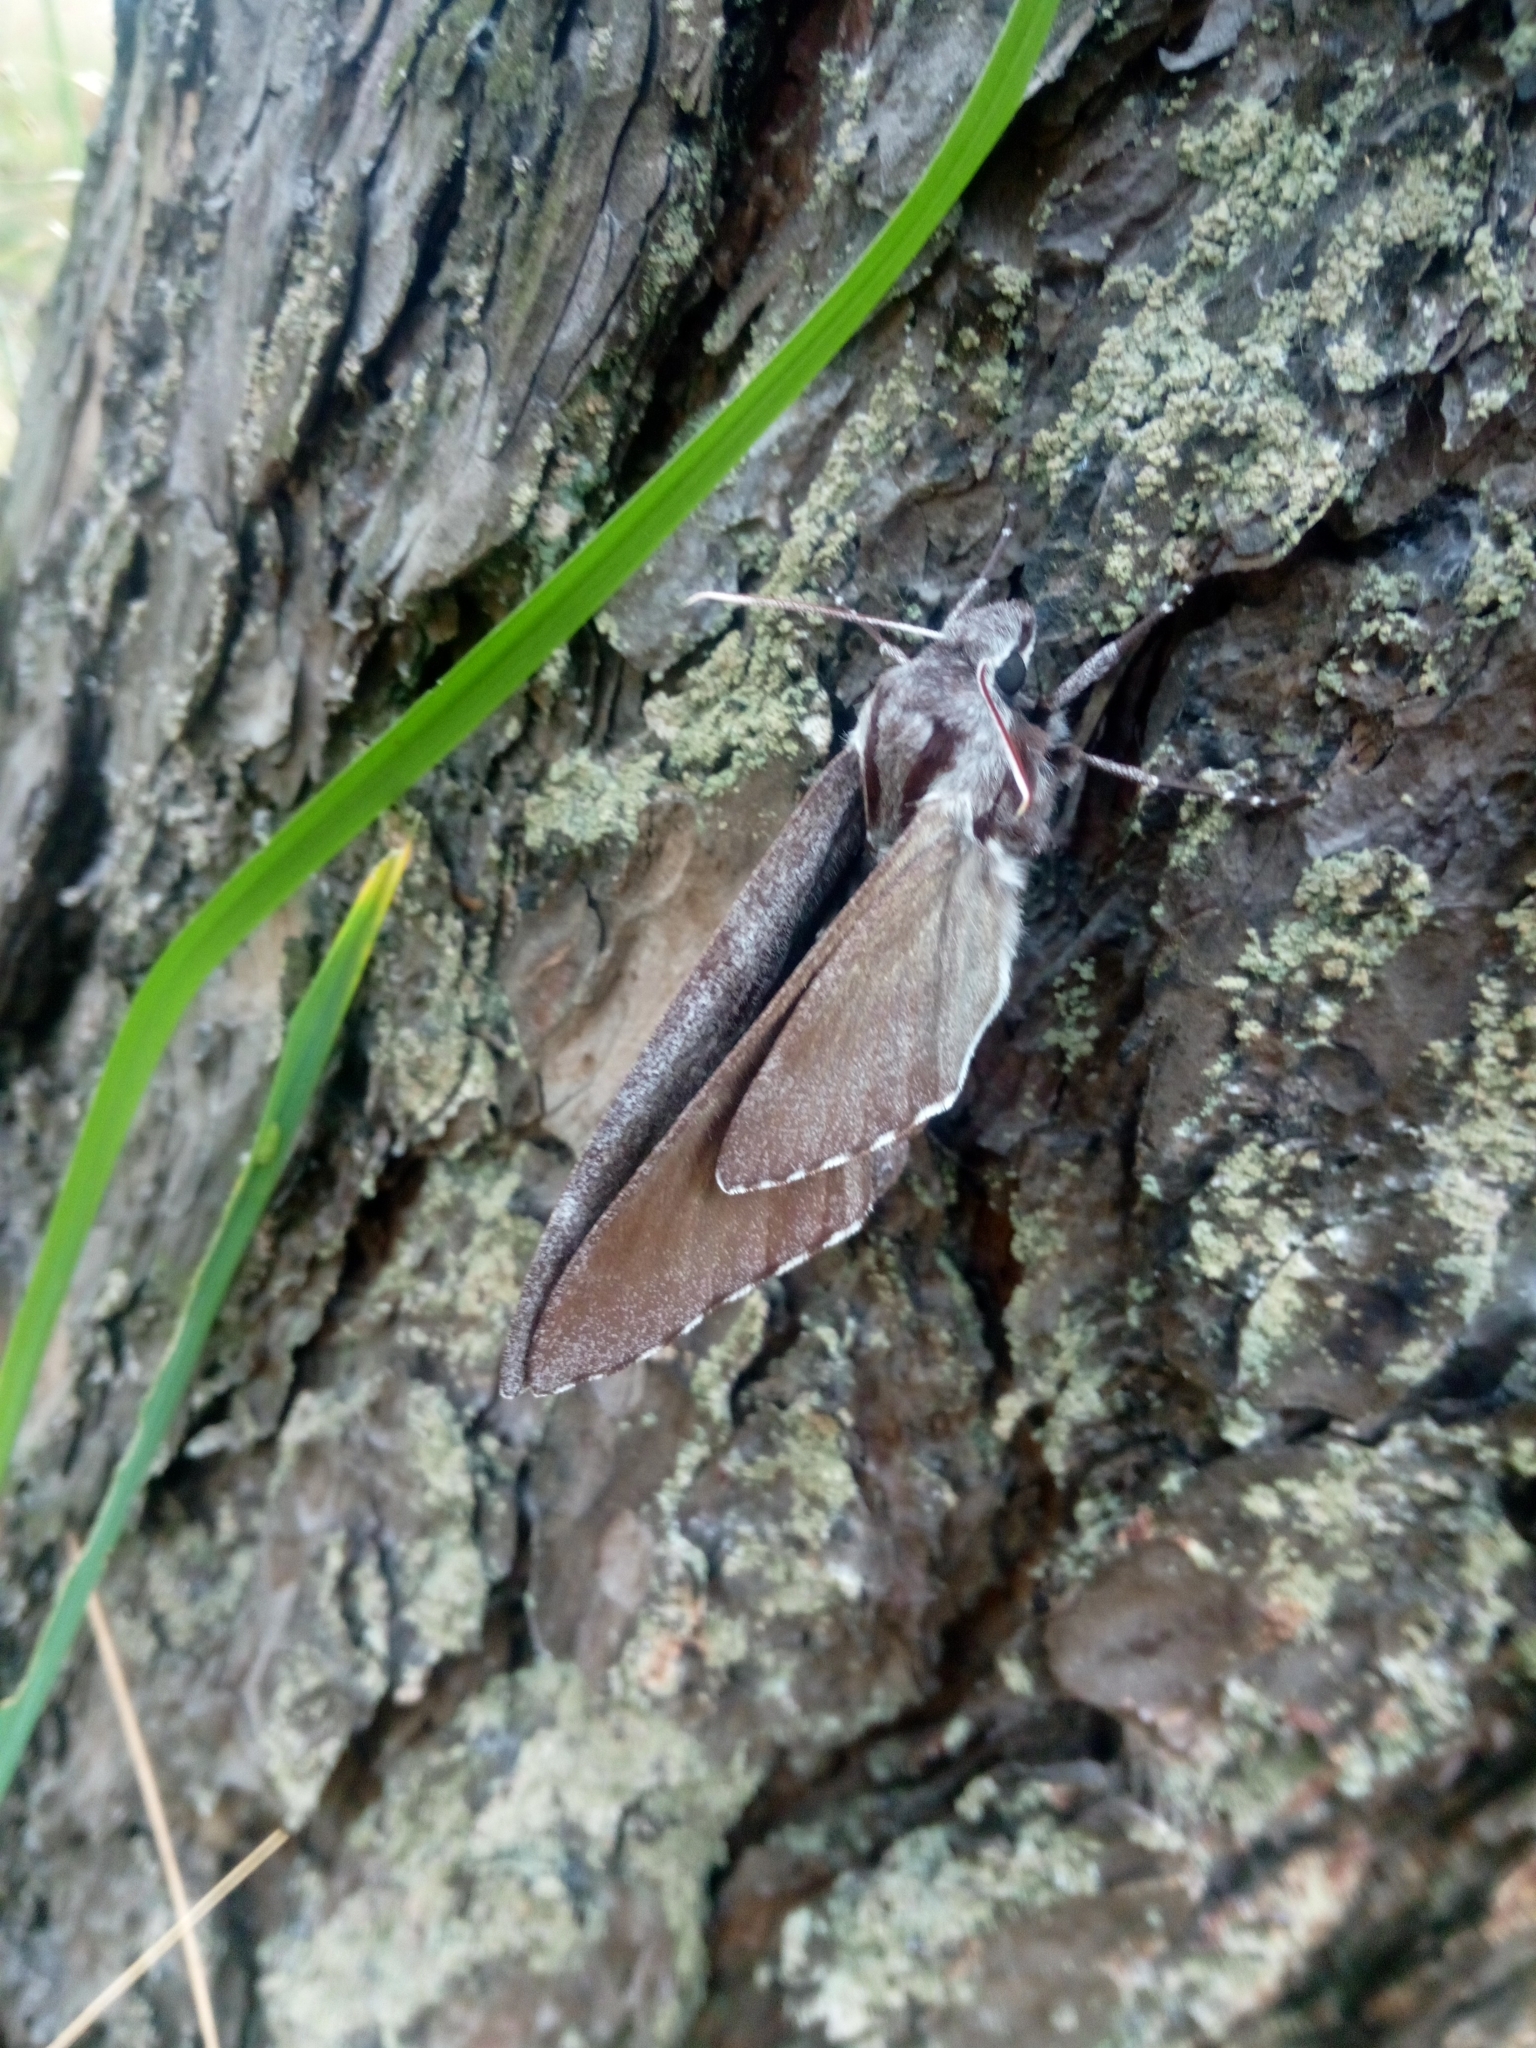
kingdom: Animalia
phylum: Arthropoda
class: Insecta
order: Lepidoptera
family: Sphingidae
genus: Sphinx
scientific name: Sphinx pinastri
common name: Pine hawk-moth
